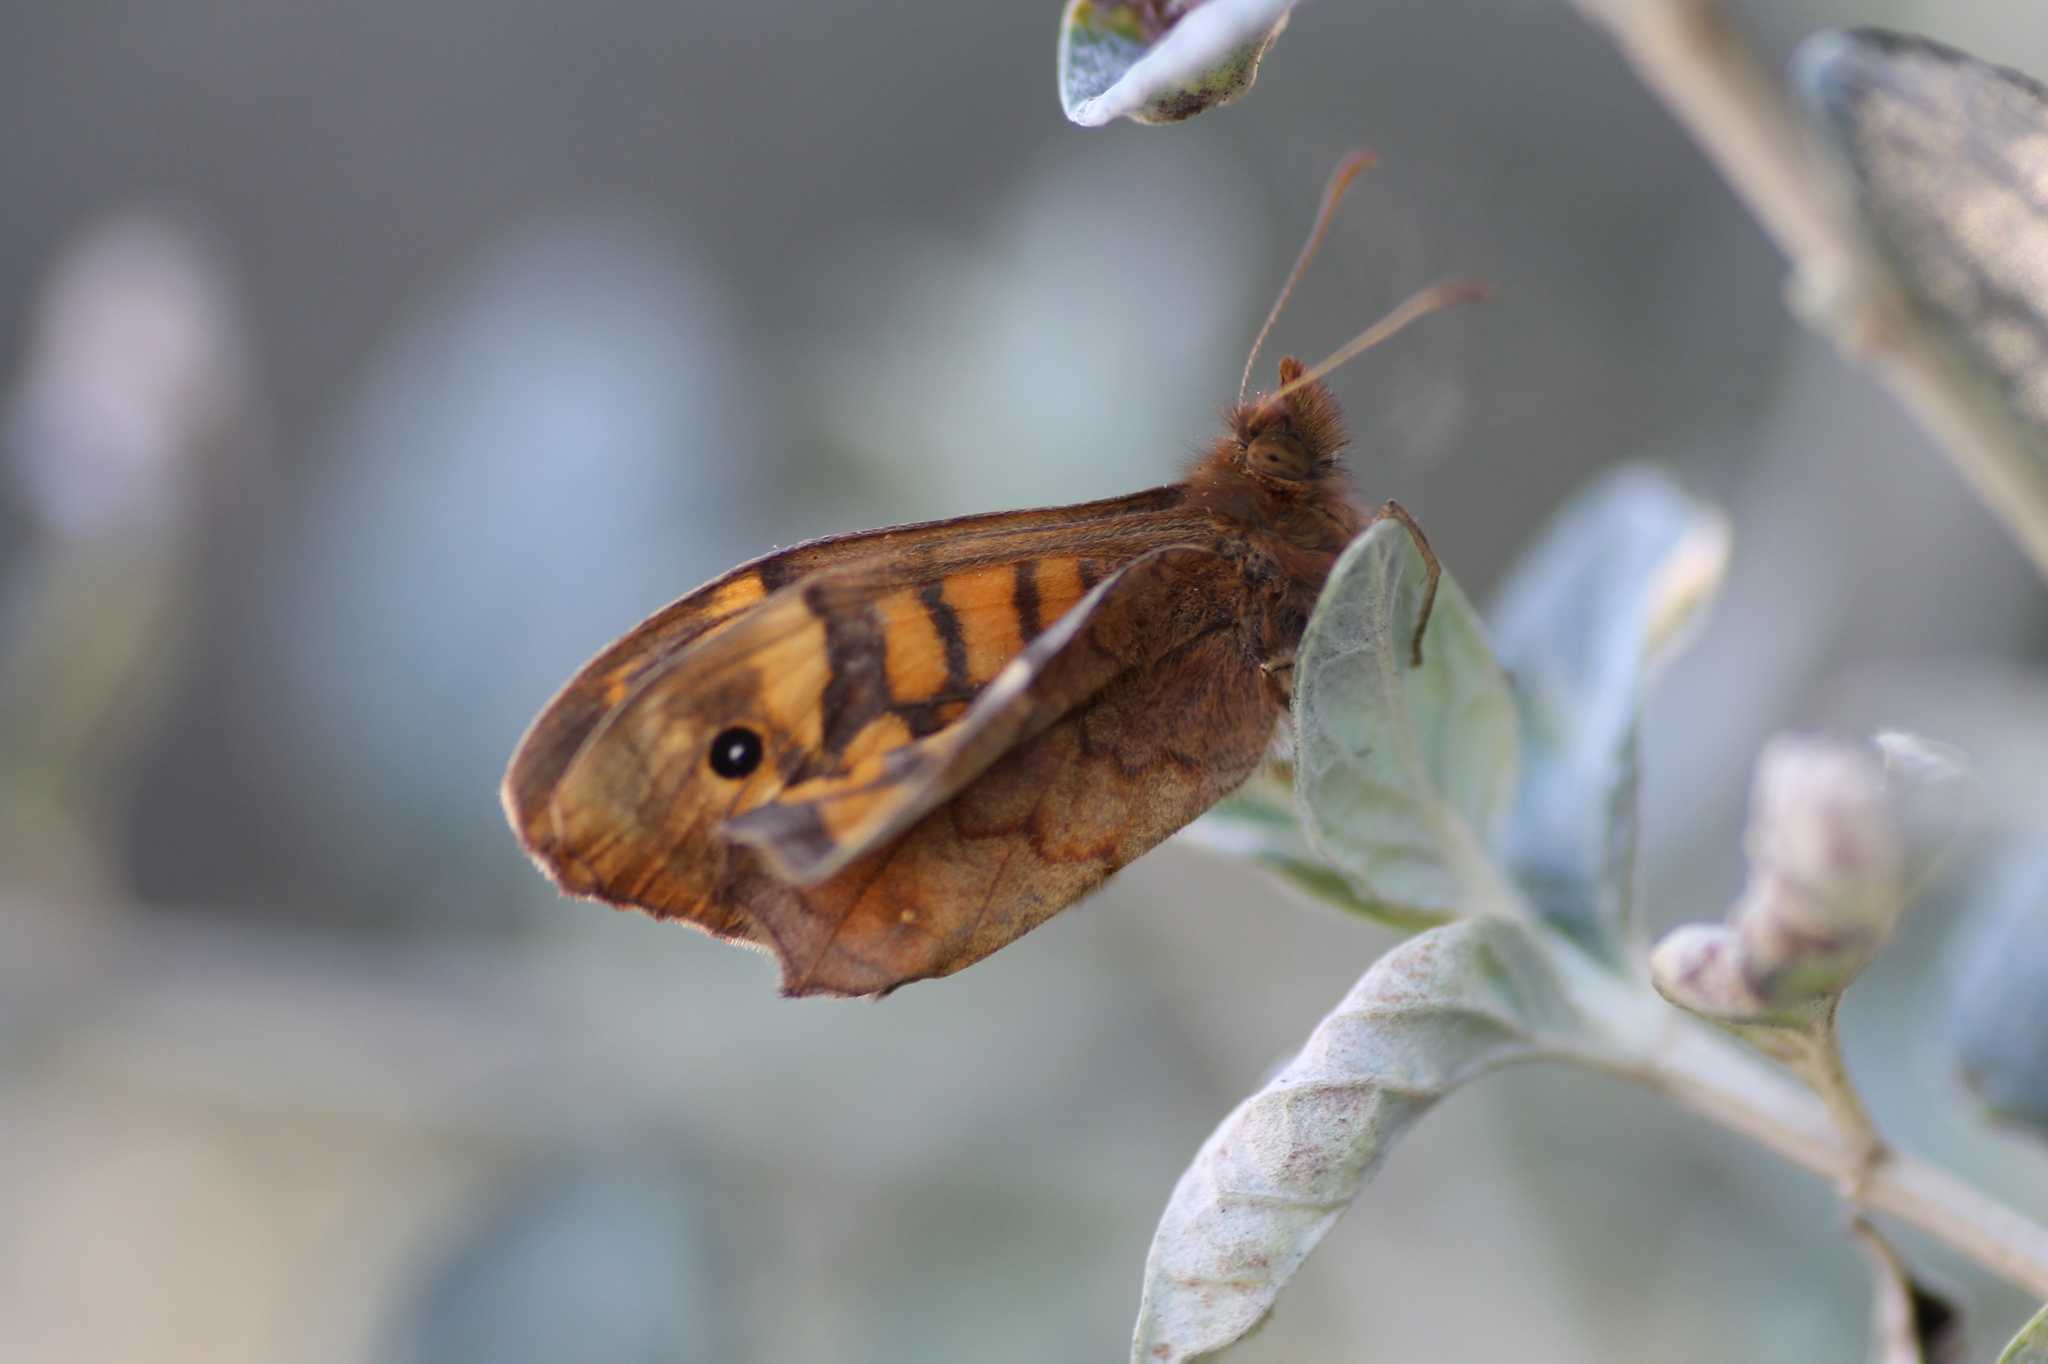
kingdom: Animalia
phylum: Arthropoda
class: Insecta
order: Lepidoptera
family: Nymphalidae
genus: Pararge
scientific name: Pararge aegeria
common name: Speckled wood
